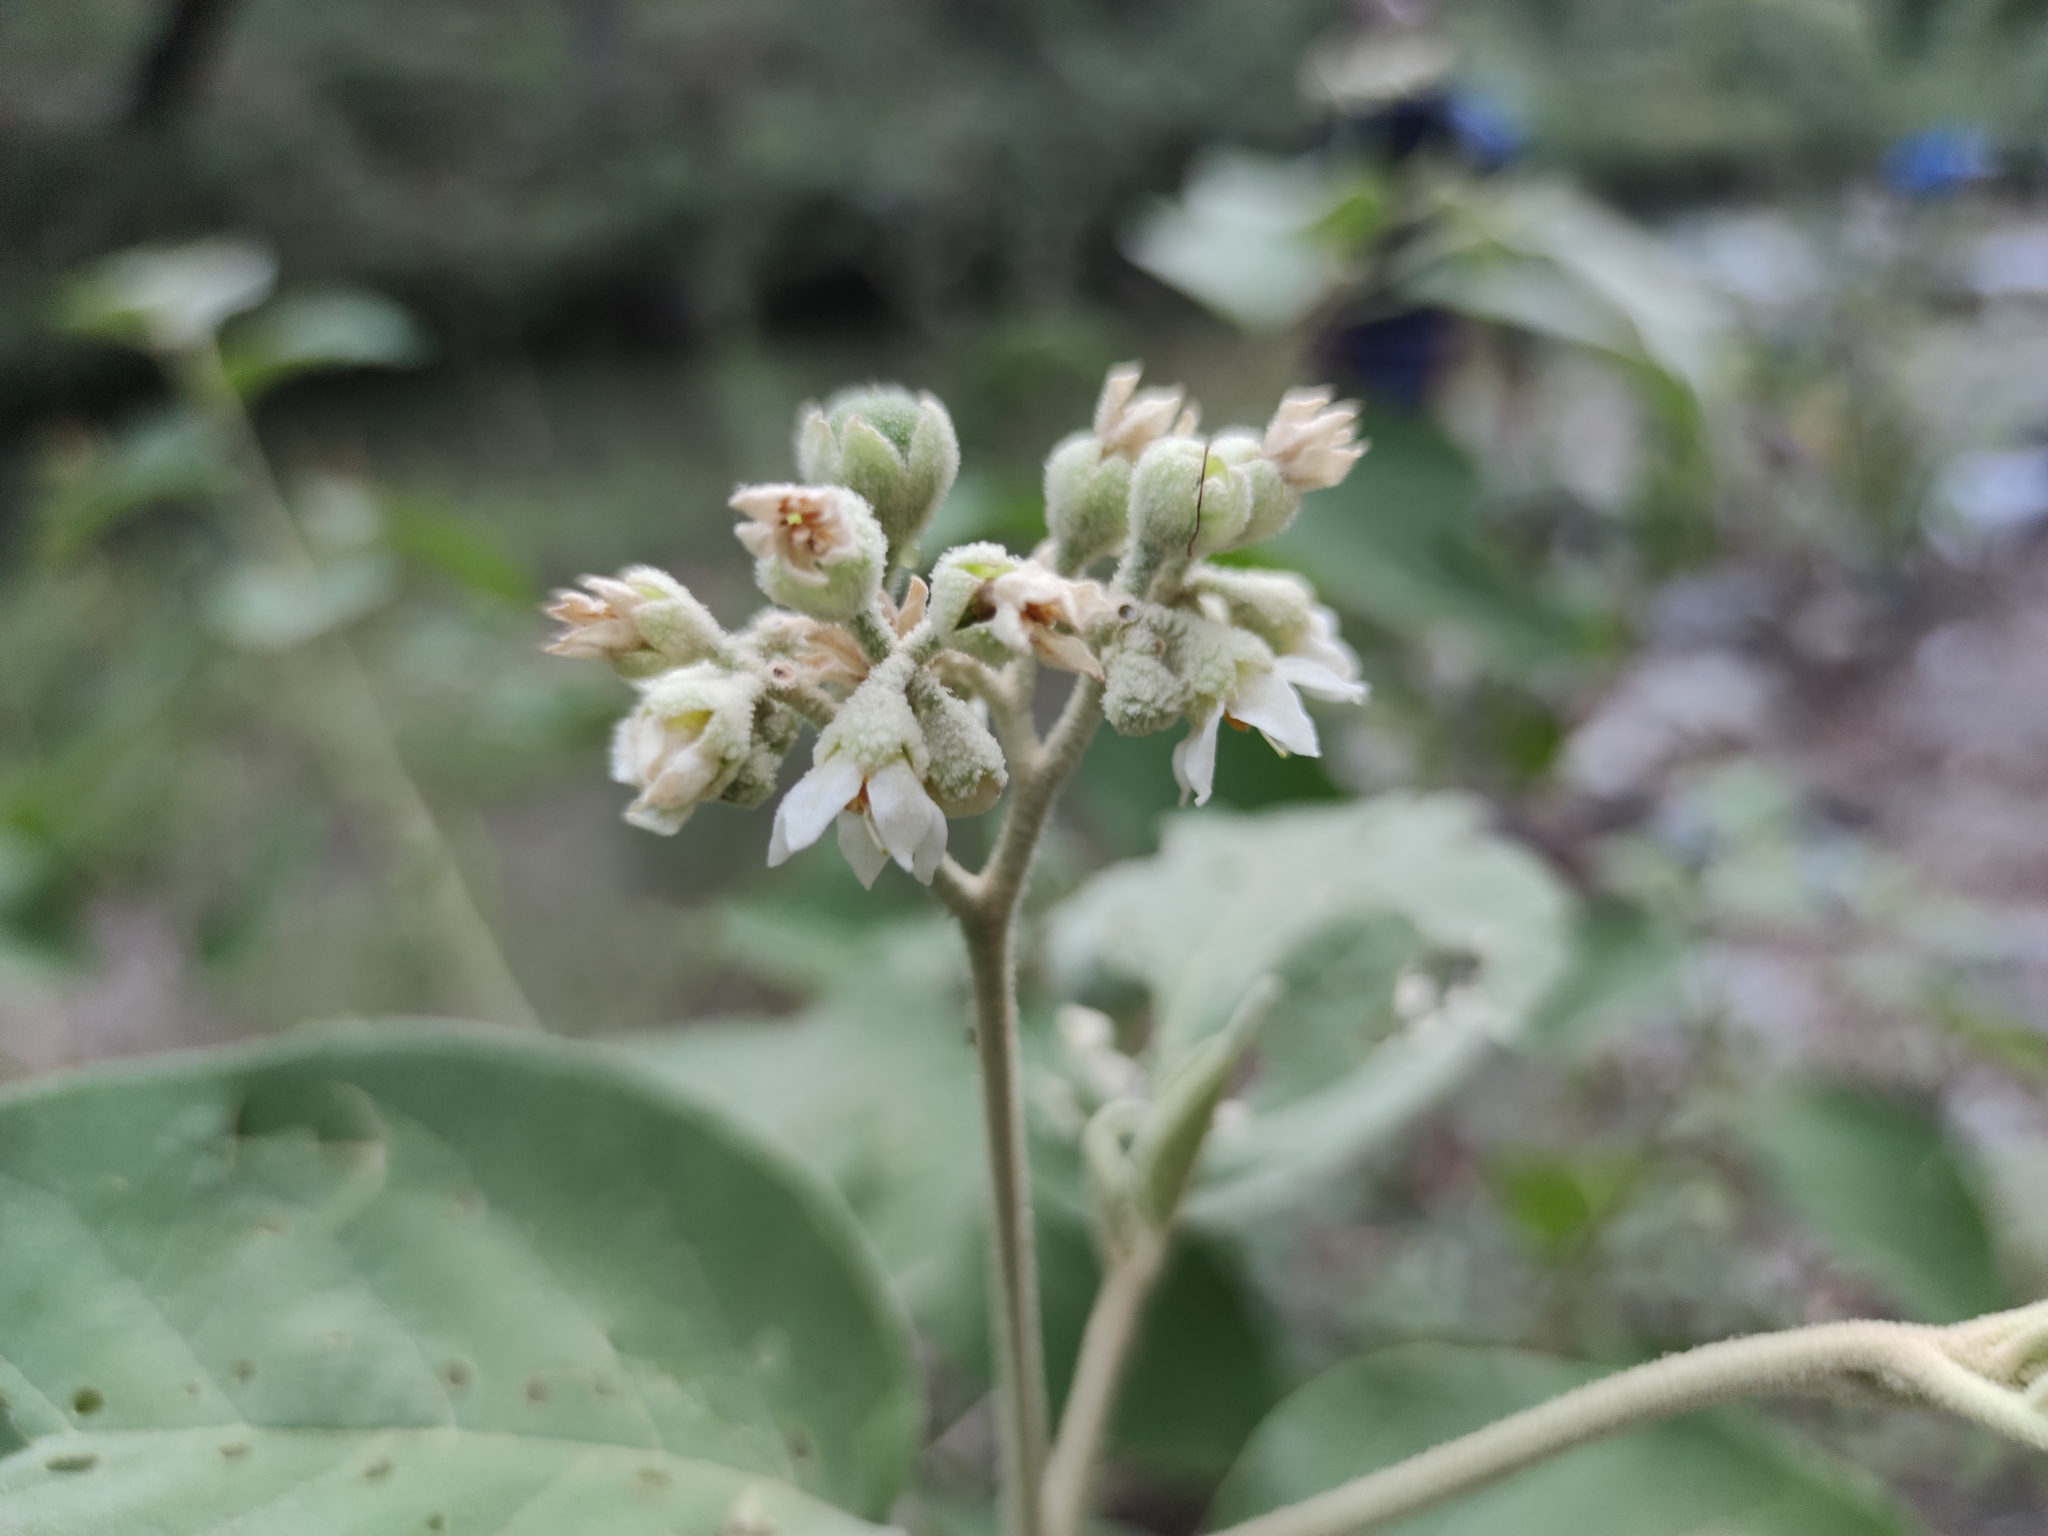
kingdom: Plantae
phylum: Tracheophyta
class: Magnoliopsida
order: Solanales
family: Solanaceae
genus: Solanum
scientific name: Solanum erianthum
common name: Tobacco-tree
